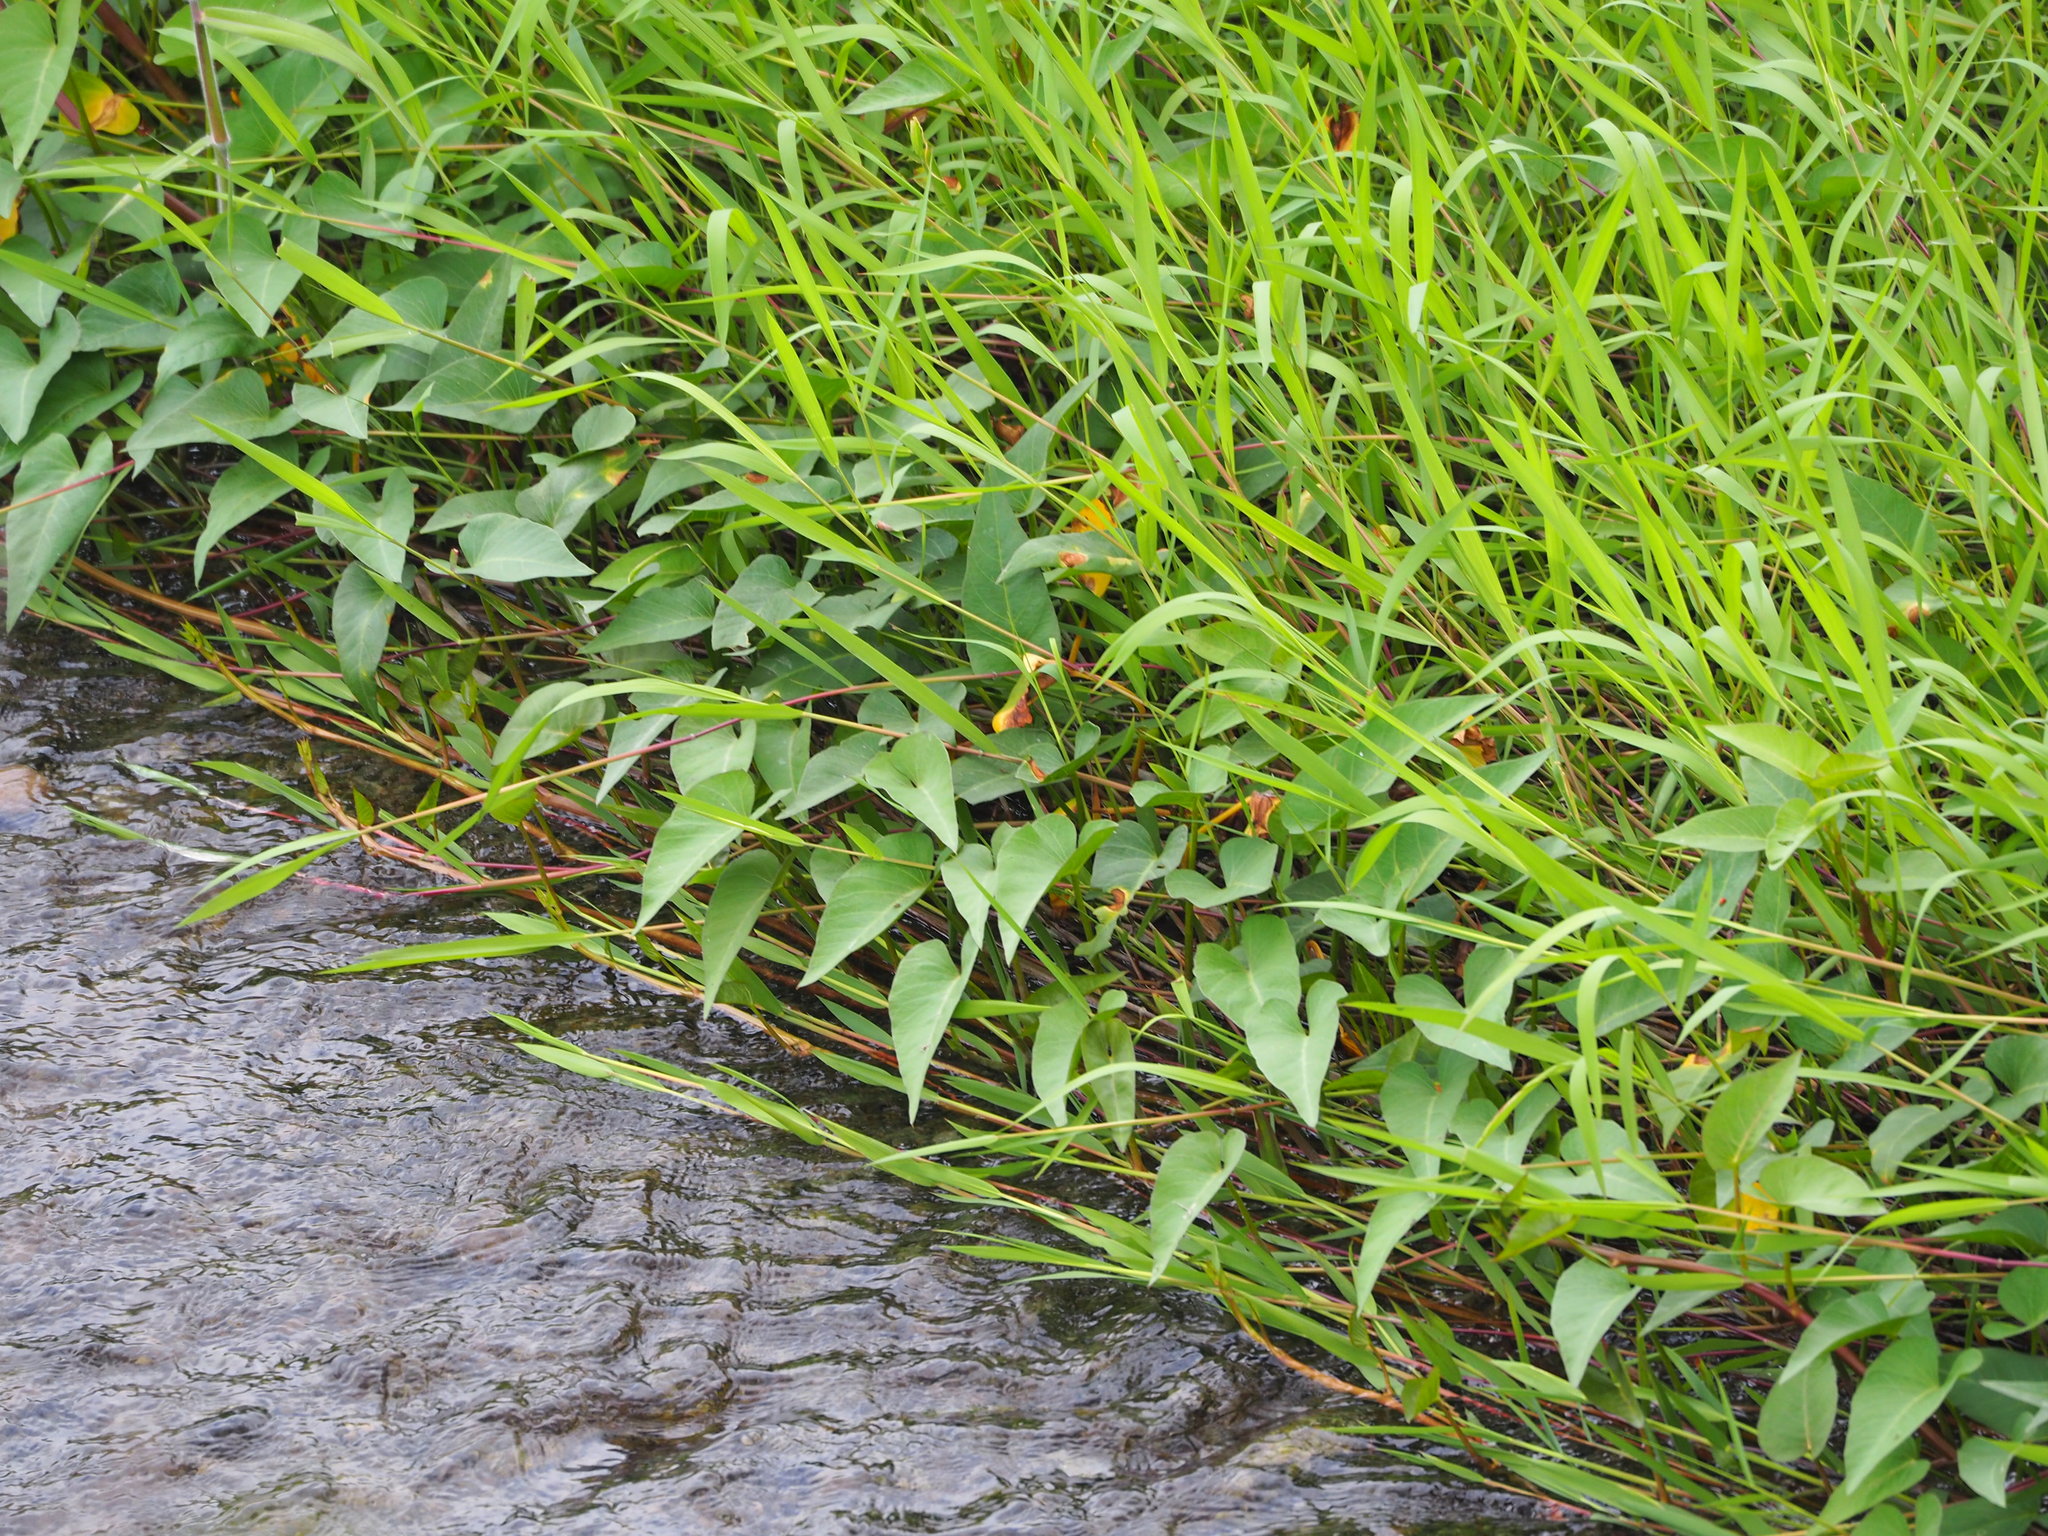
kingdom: Plantae
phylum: Tracheophyta
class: Magnoliopsida
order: Solanales
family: Convolvulaceae
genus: Ipomoea
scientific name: Ipomoea aquatica
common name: Swamp morning-glory
